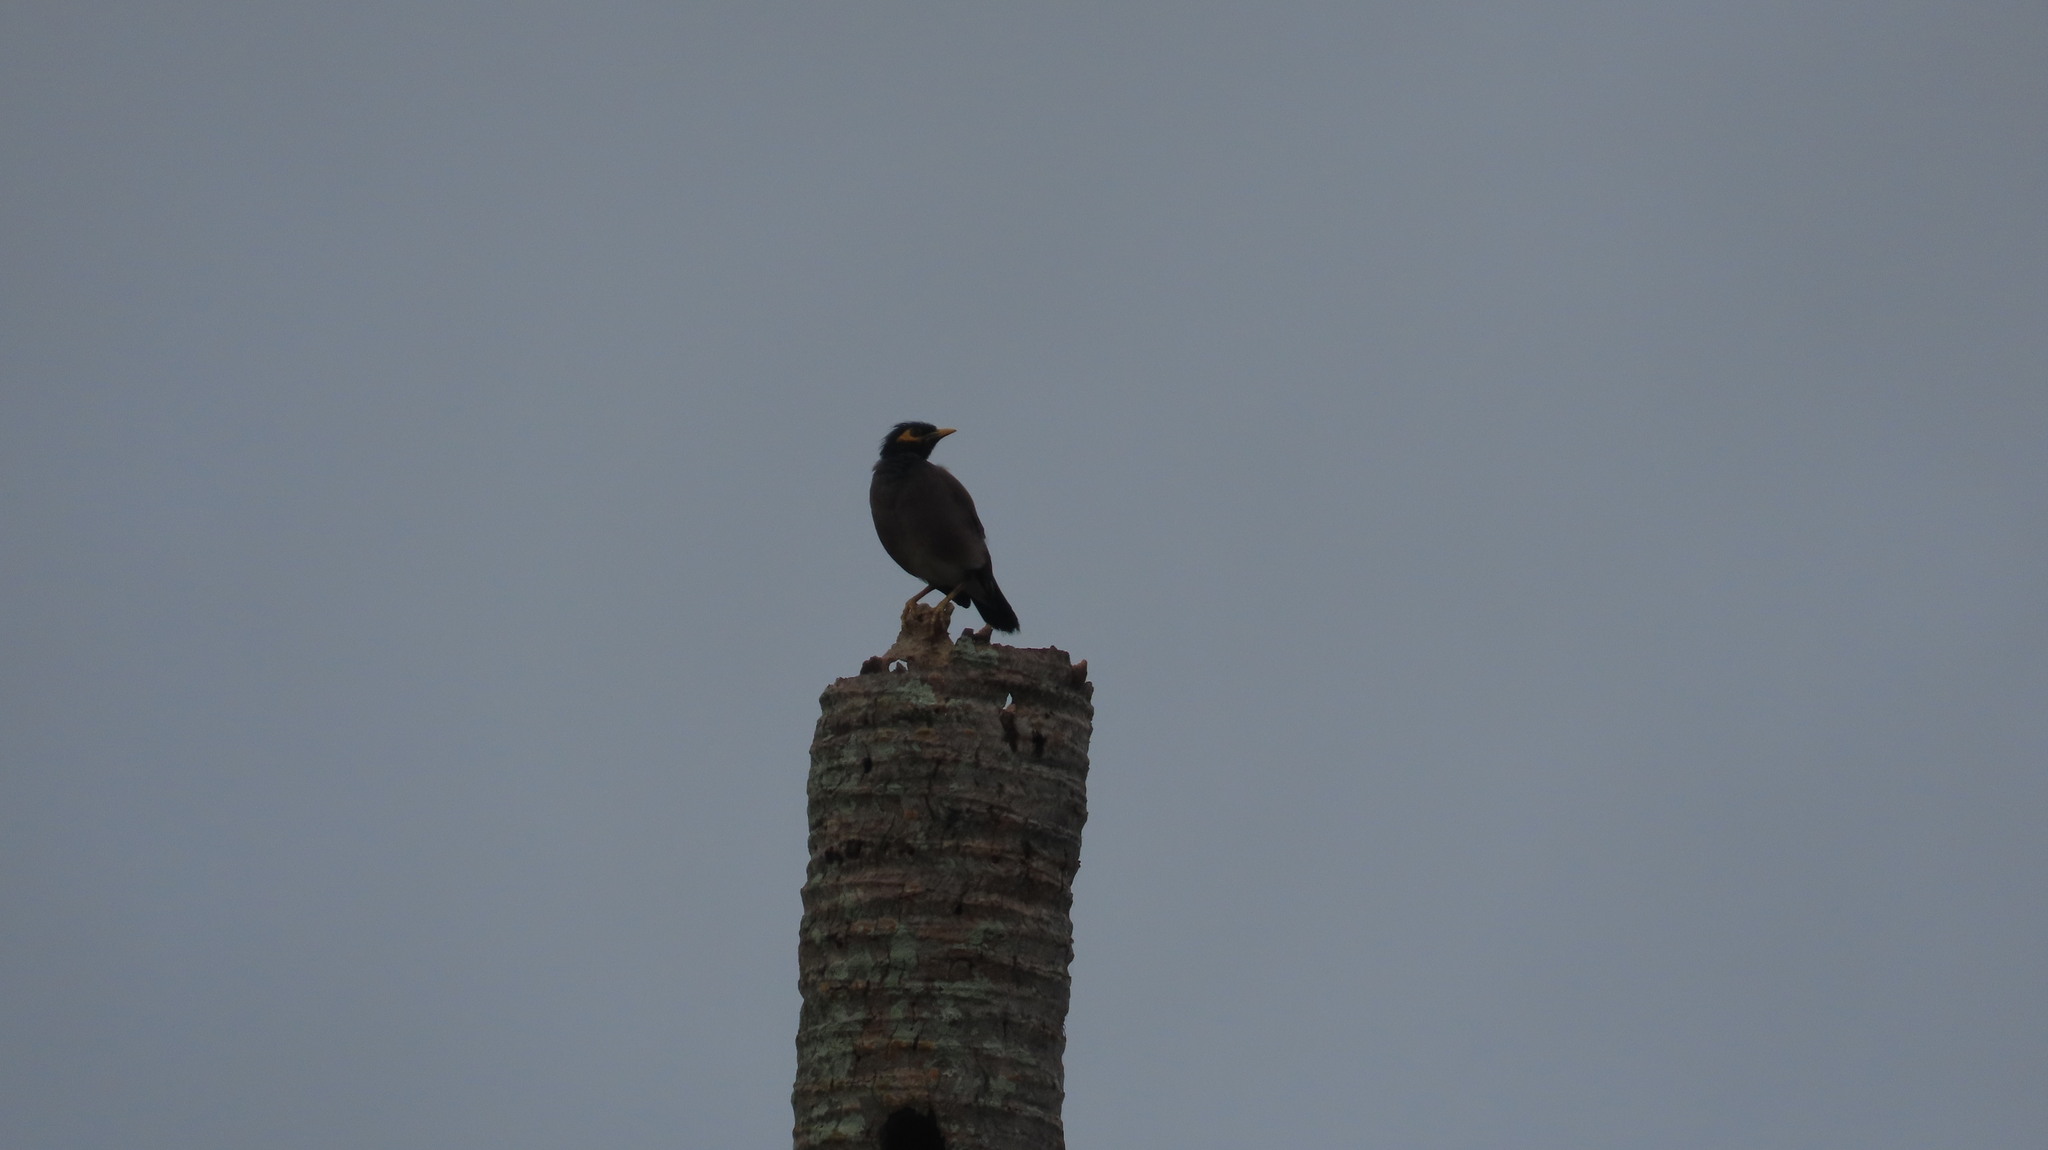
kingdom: Animalia
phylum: Chordata
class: Aves
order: Passeriformes
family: Sturnidae
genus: Acridotheres
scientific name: Acridotheres tristis
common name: Common myna
